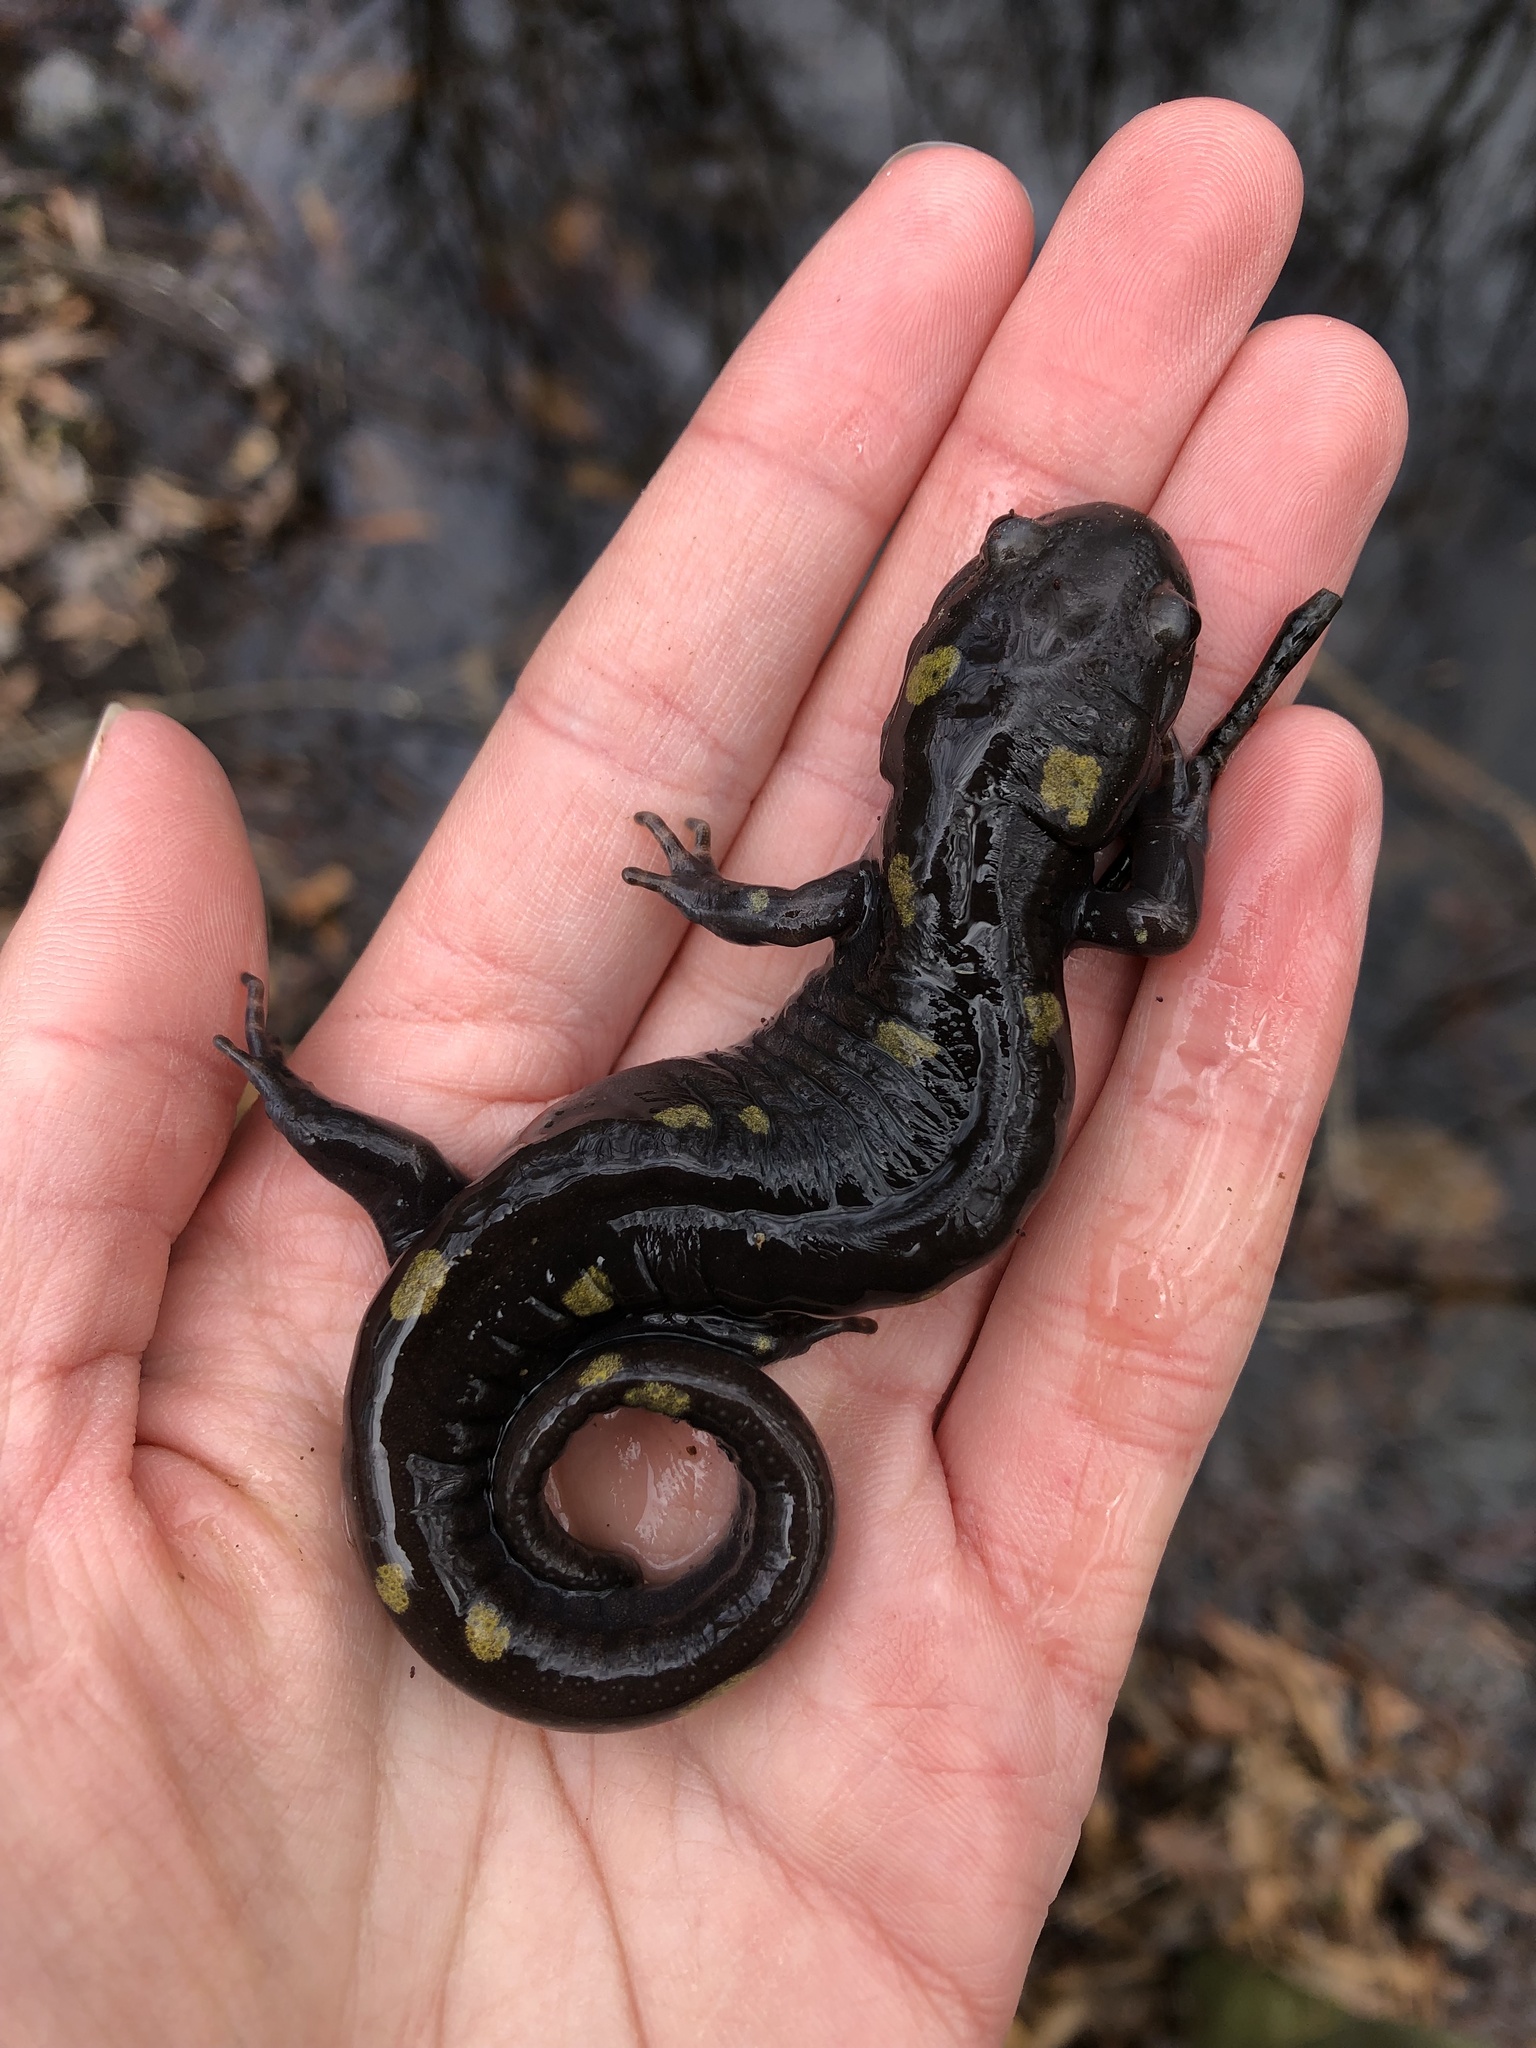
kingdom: Animalia
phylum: Chordata
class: Amphibia
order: Caudata
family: Ambystomatidae
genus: Ambystoma
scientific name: Ambystoma maculatum
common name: Spotted salamander
